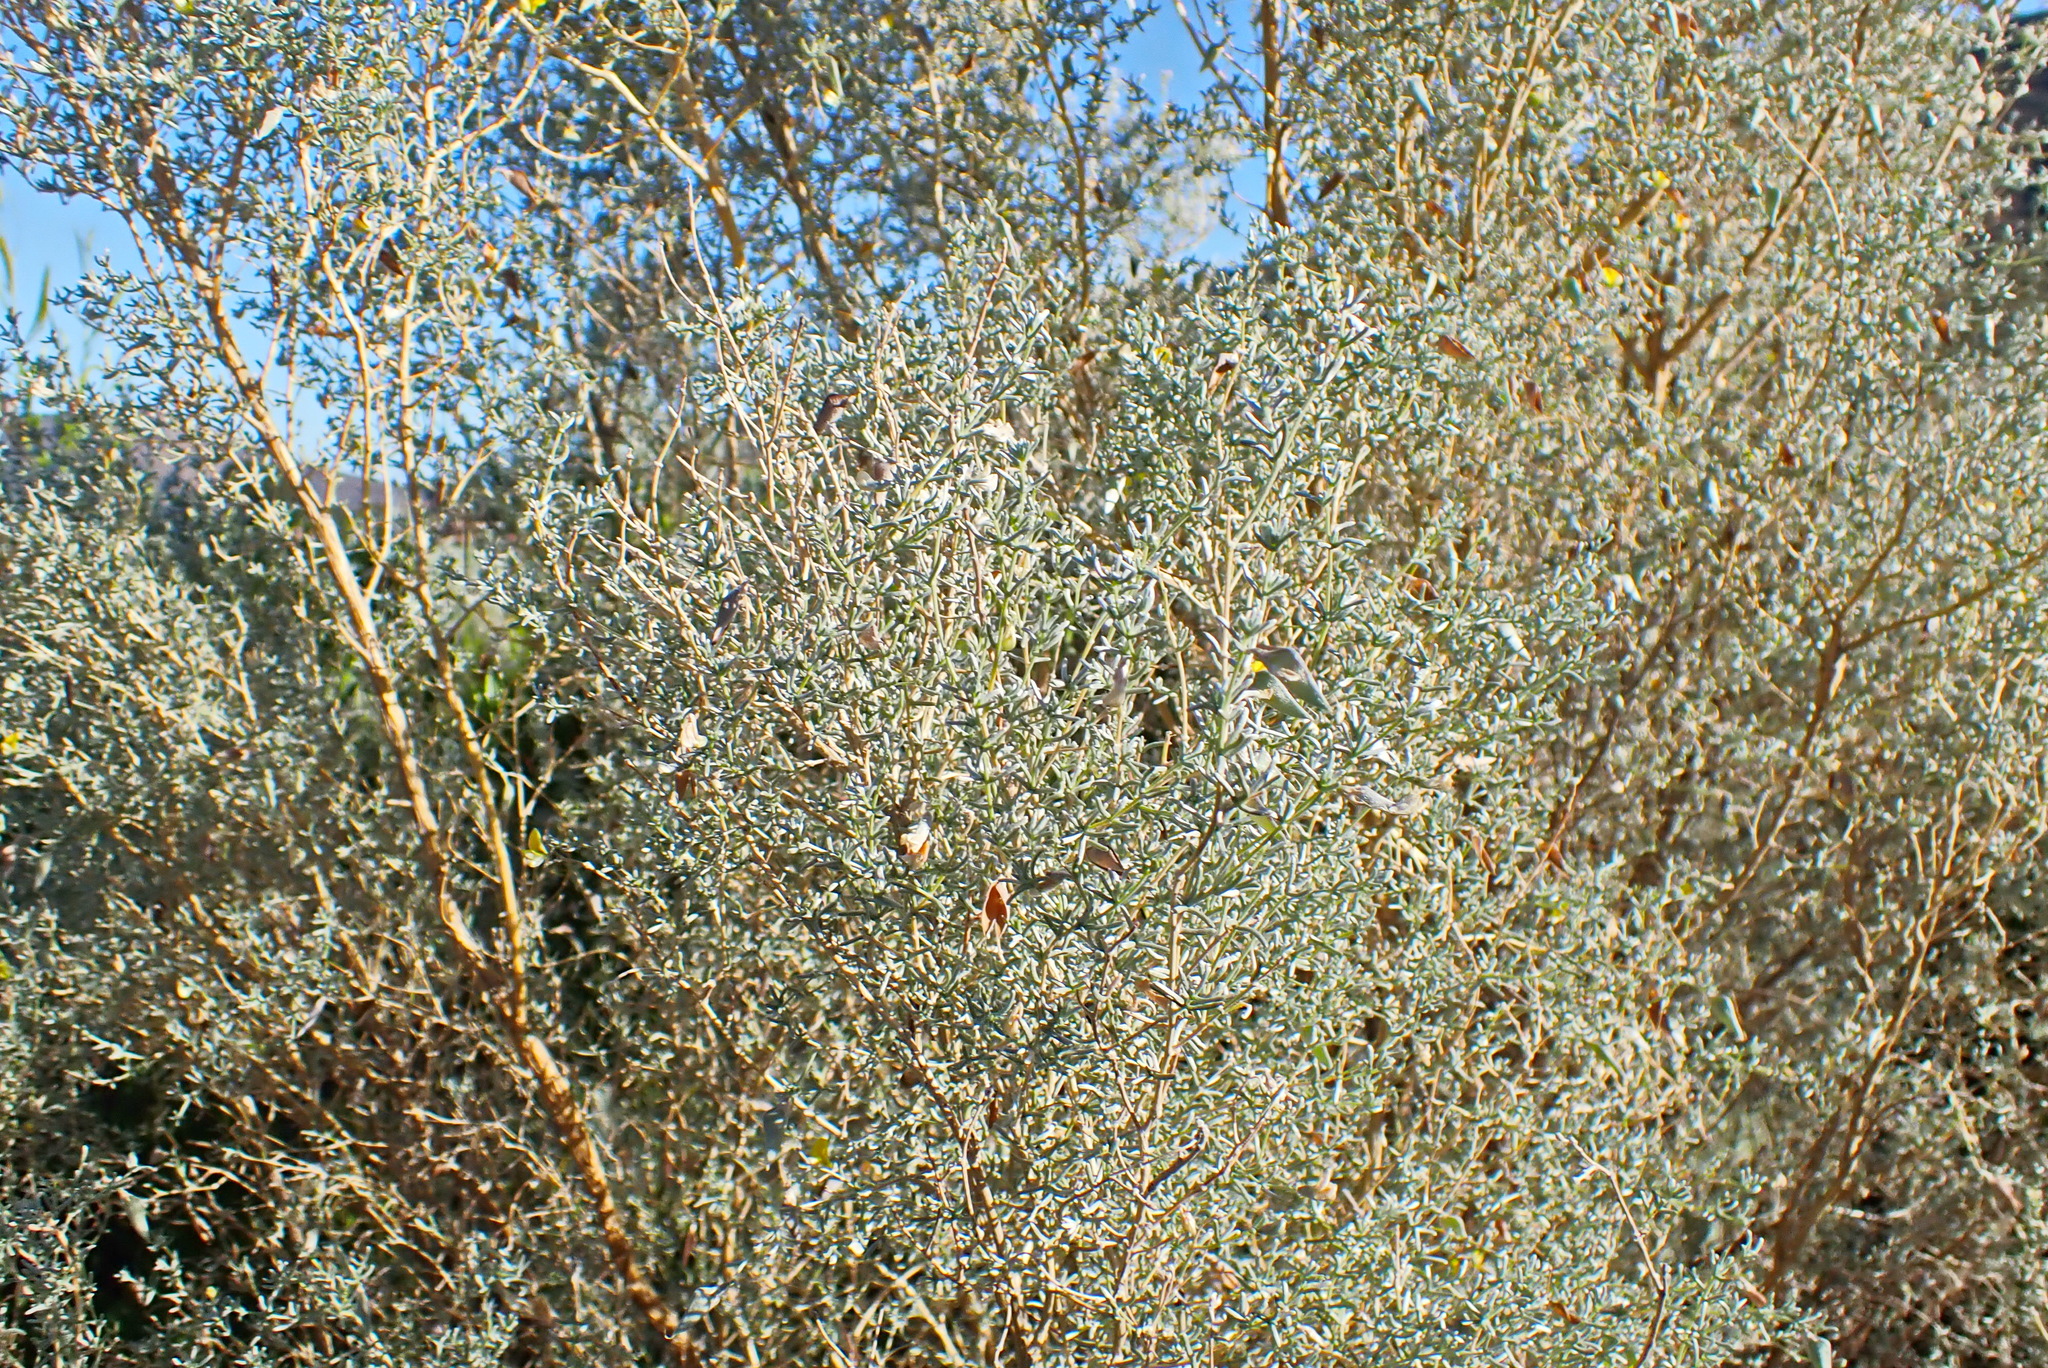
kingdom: Plantae
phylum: Tracheophyta
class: Magnoliopsida
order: Fabales
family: Fabaceae
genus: Aspalathus
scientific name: Aspalathus pedunculata
